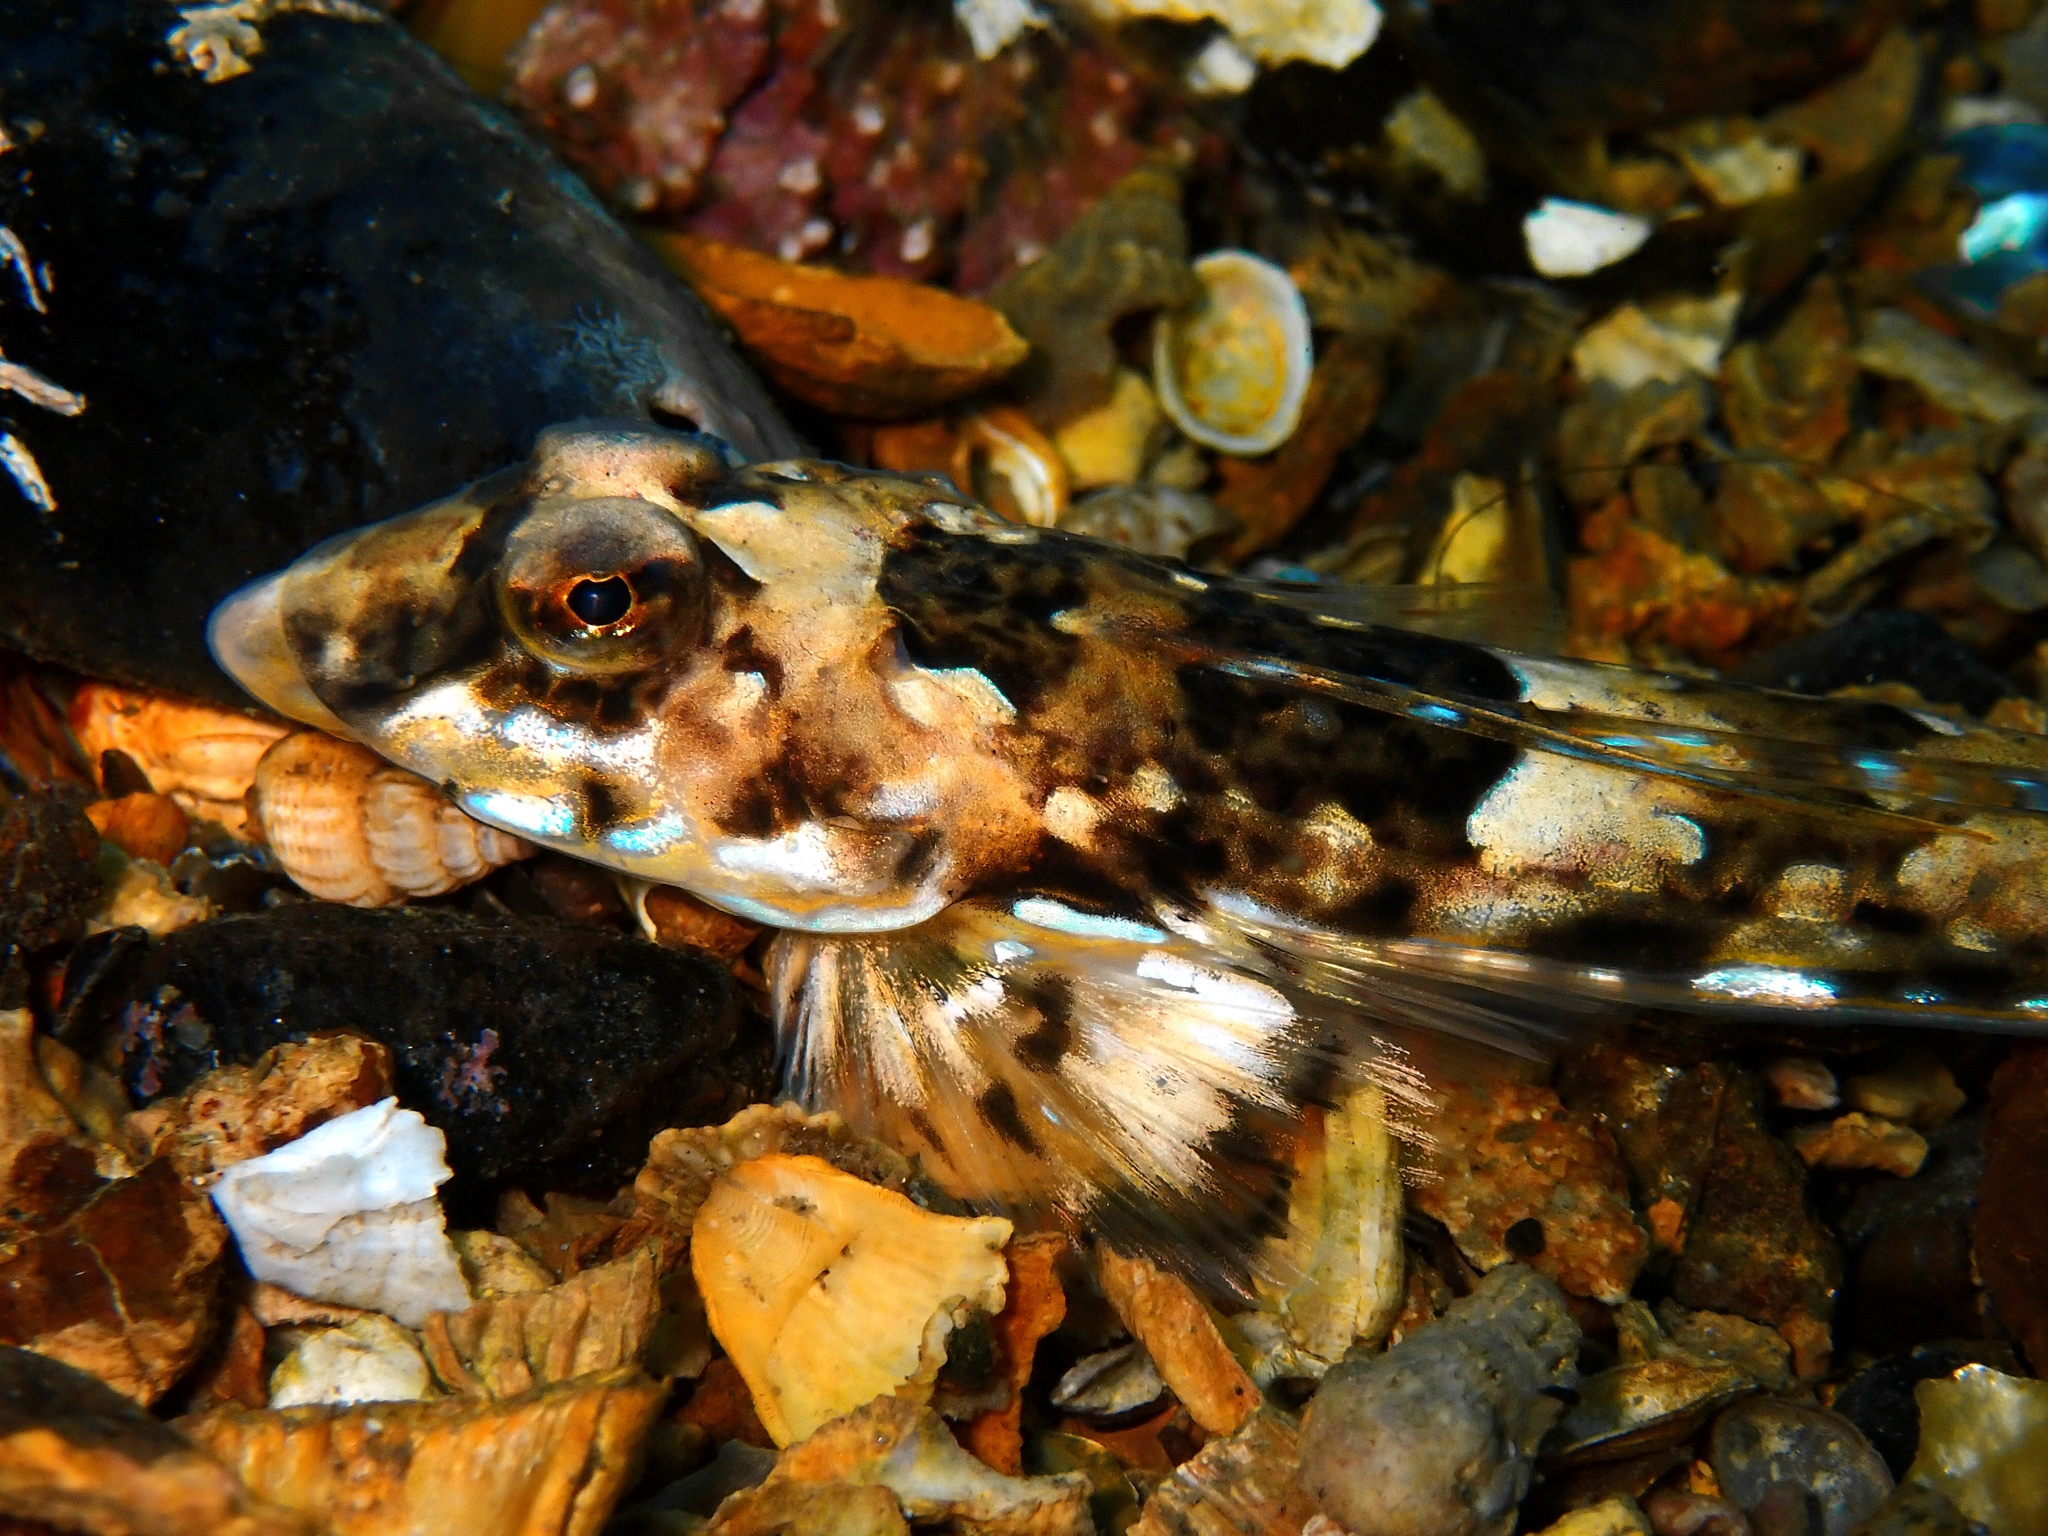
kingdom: Animalia
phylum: Chordata
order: Perciformes
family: Callionymidae
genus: Callionymus
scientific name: Callionymus reticulatus
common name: Reticulated dragonet
